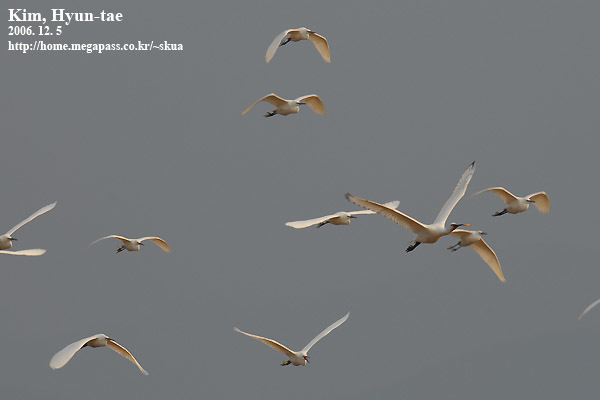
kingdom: Animalia
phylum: Chordata
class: Aves
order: Pelecaniformes
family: Threskiornithidae
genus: Platalea
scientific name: Platalea leucorodia
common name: Eurasian spoonbill
